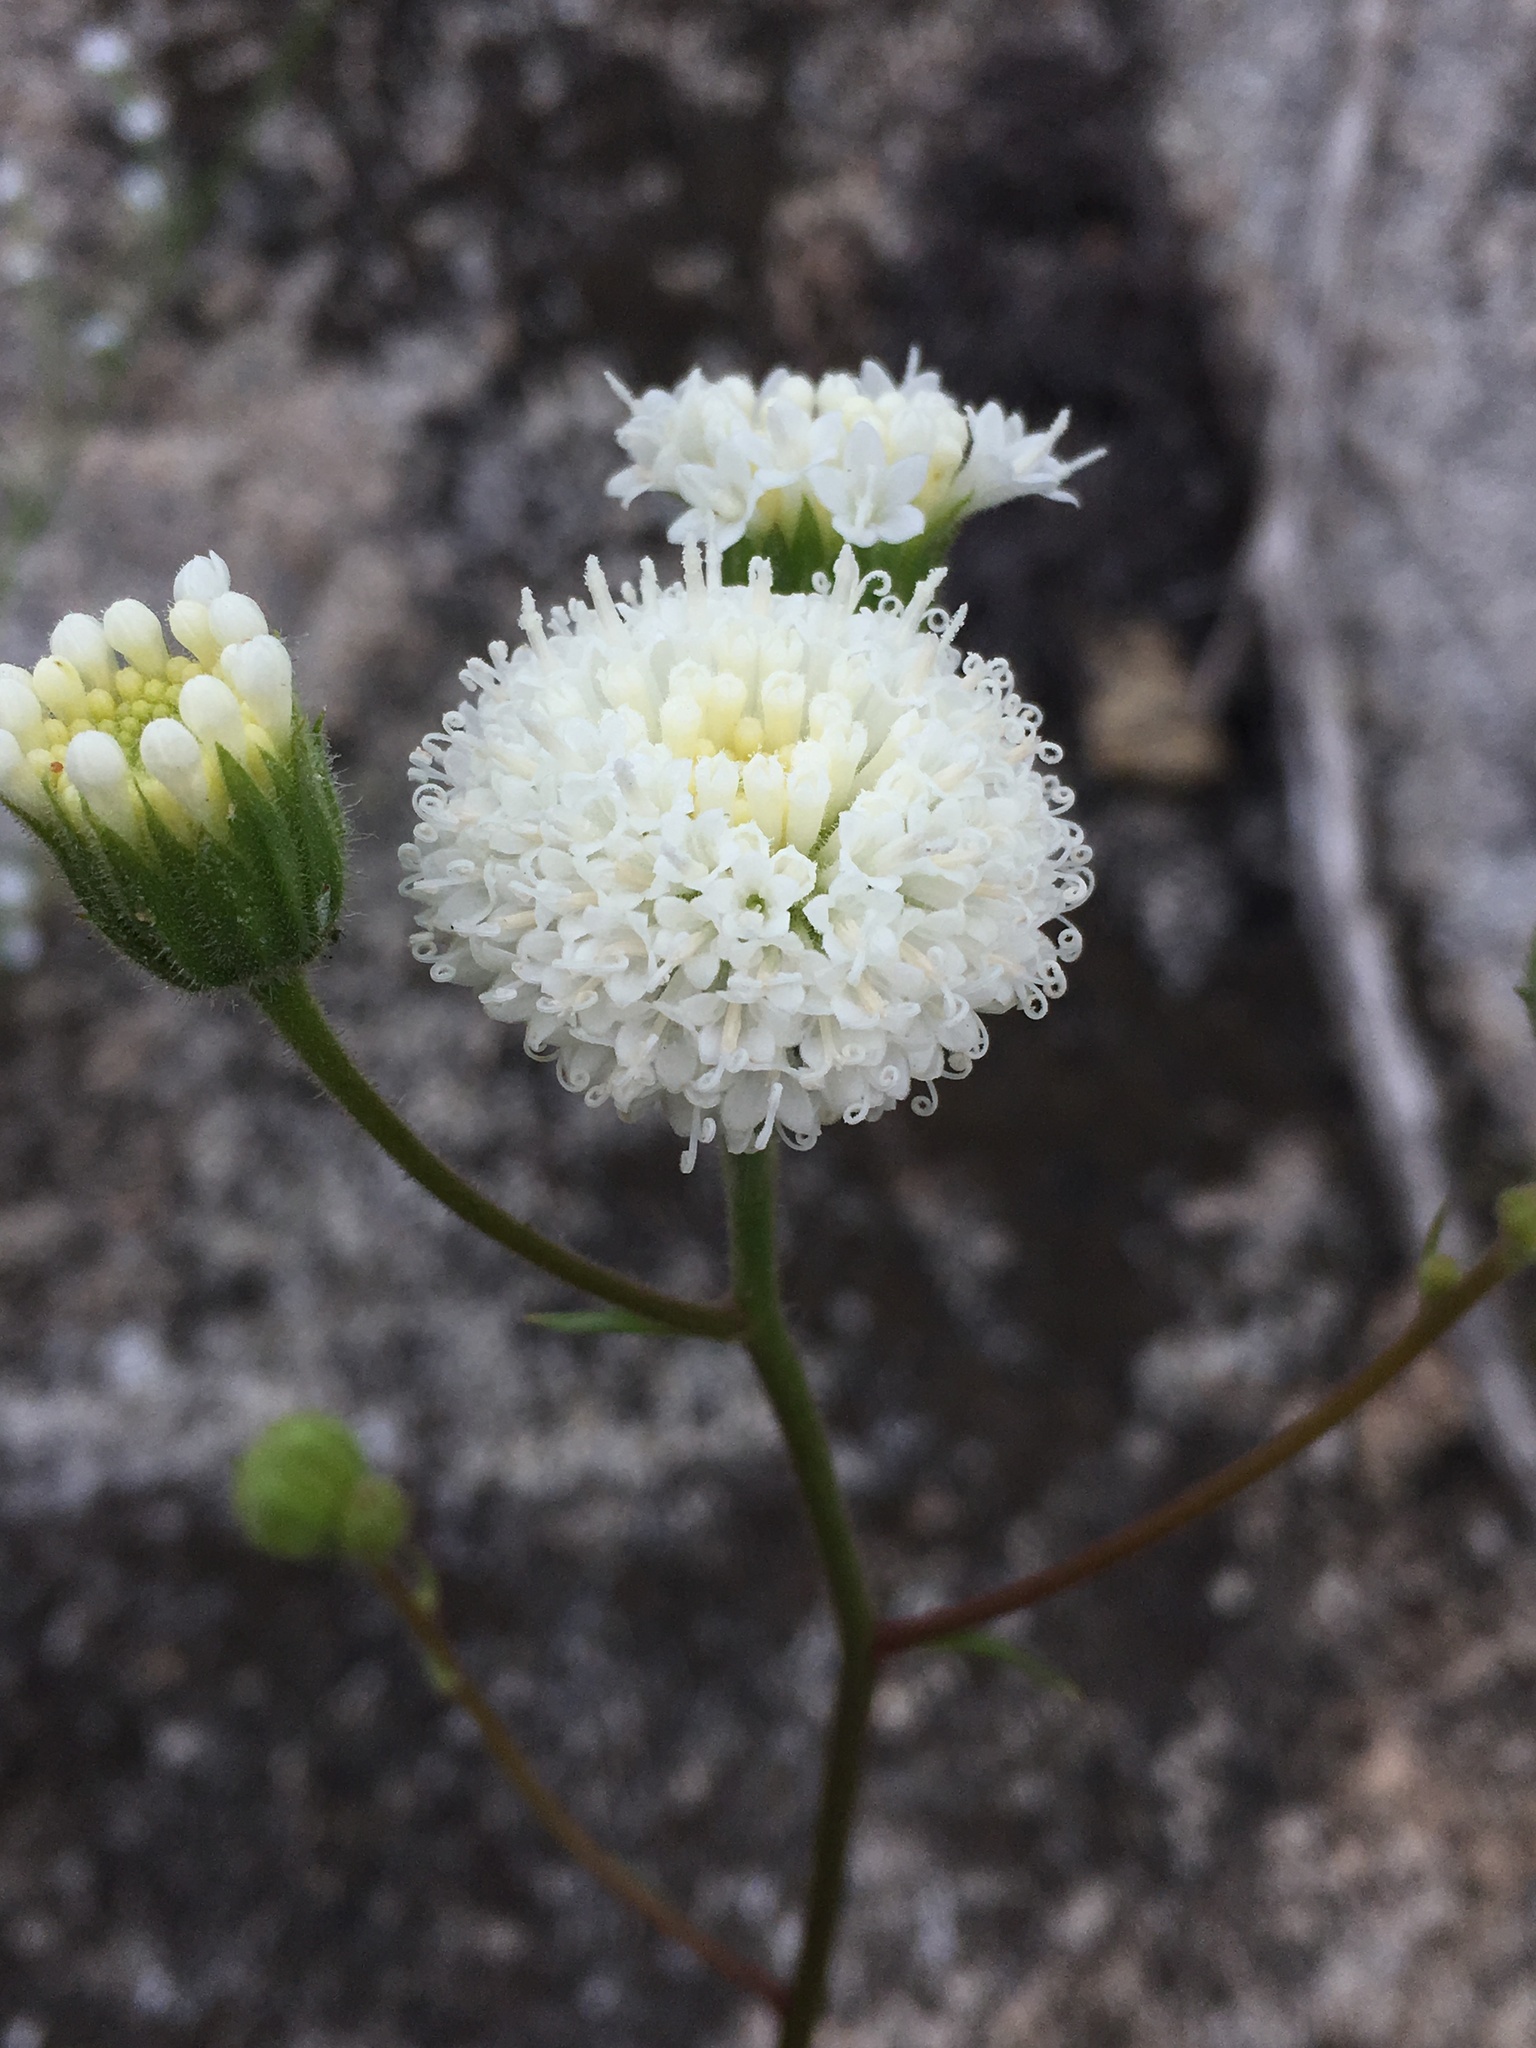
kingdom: Plantae
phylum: Tracheophyta
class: Magnoliopsida
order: Asterales
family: Asteraceae
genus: Chaenactis
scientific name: Chaenactis artemisiifolia
